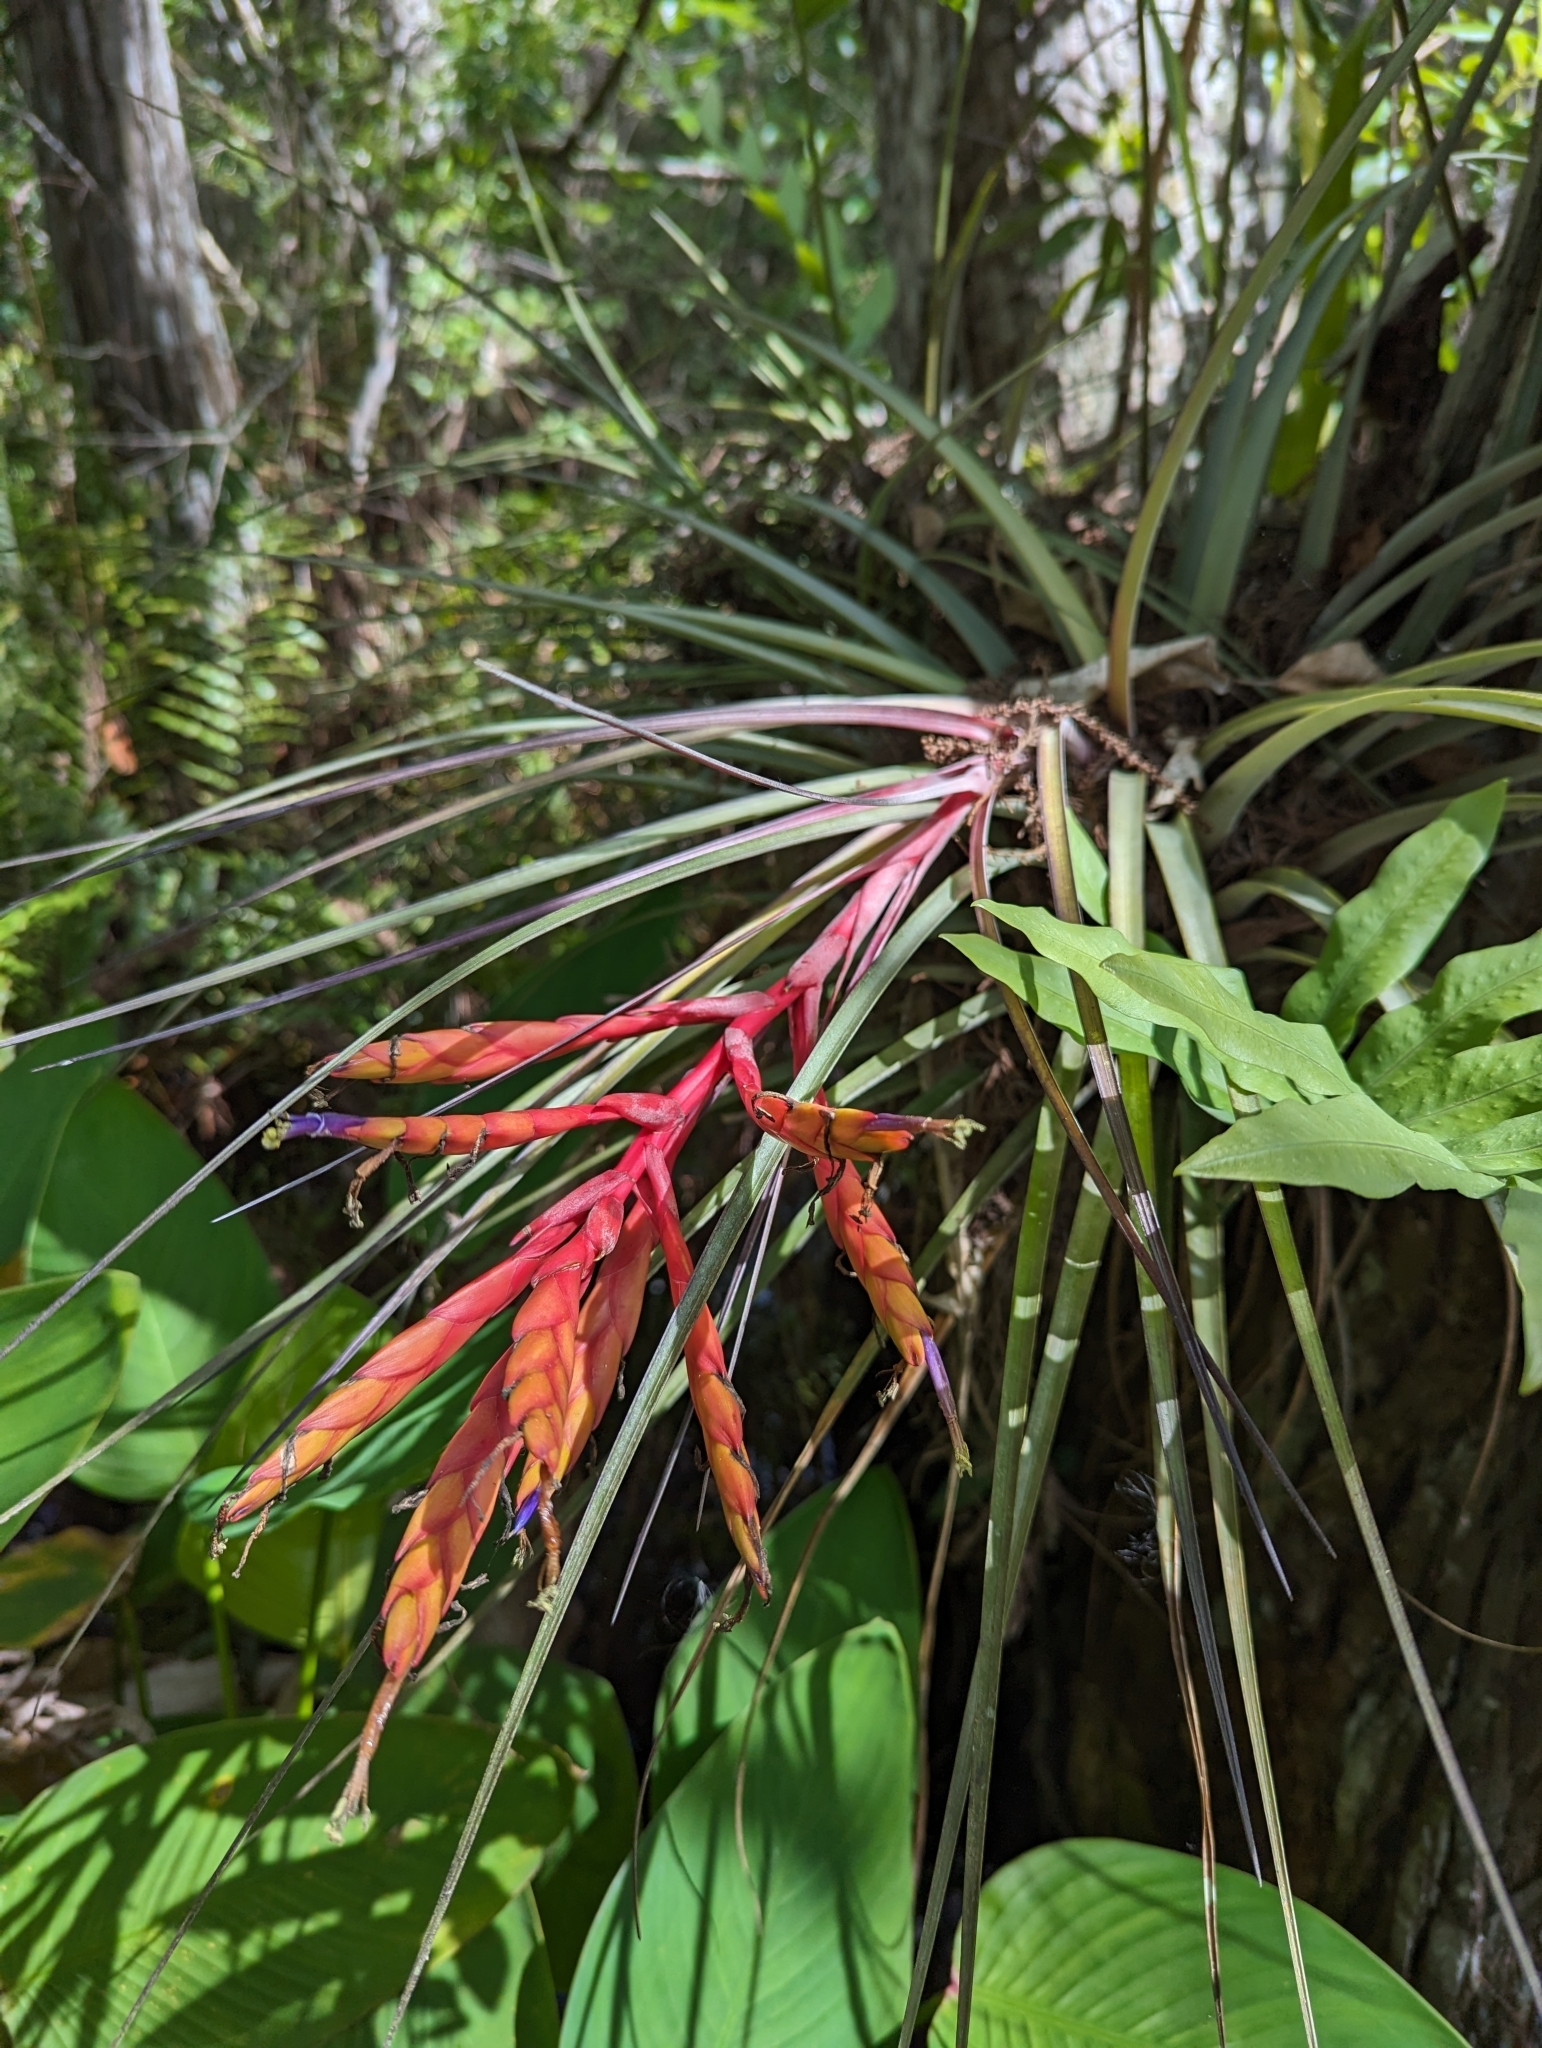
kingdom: Plantae
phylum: Tracheophyta
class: Liliopsida
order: Poales
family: Bromeliaceae
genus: Tillandsia
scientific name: Tillandsia fasciculata
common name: Giant airplant
